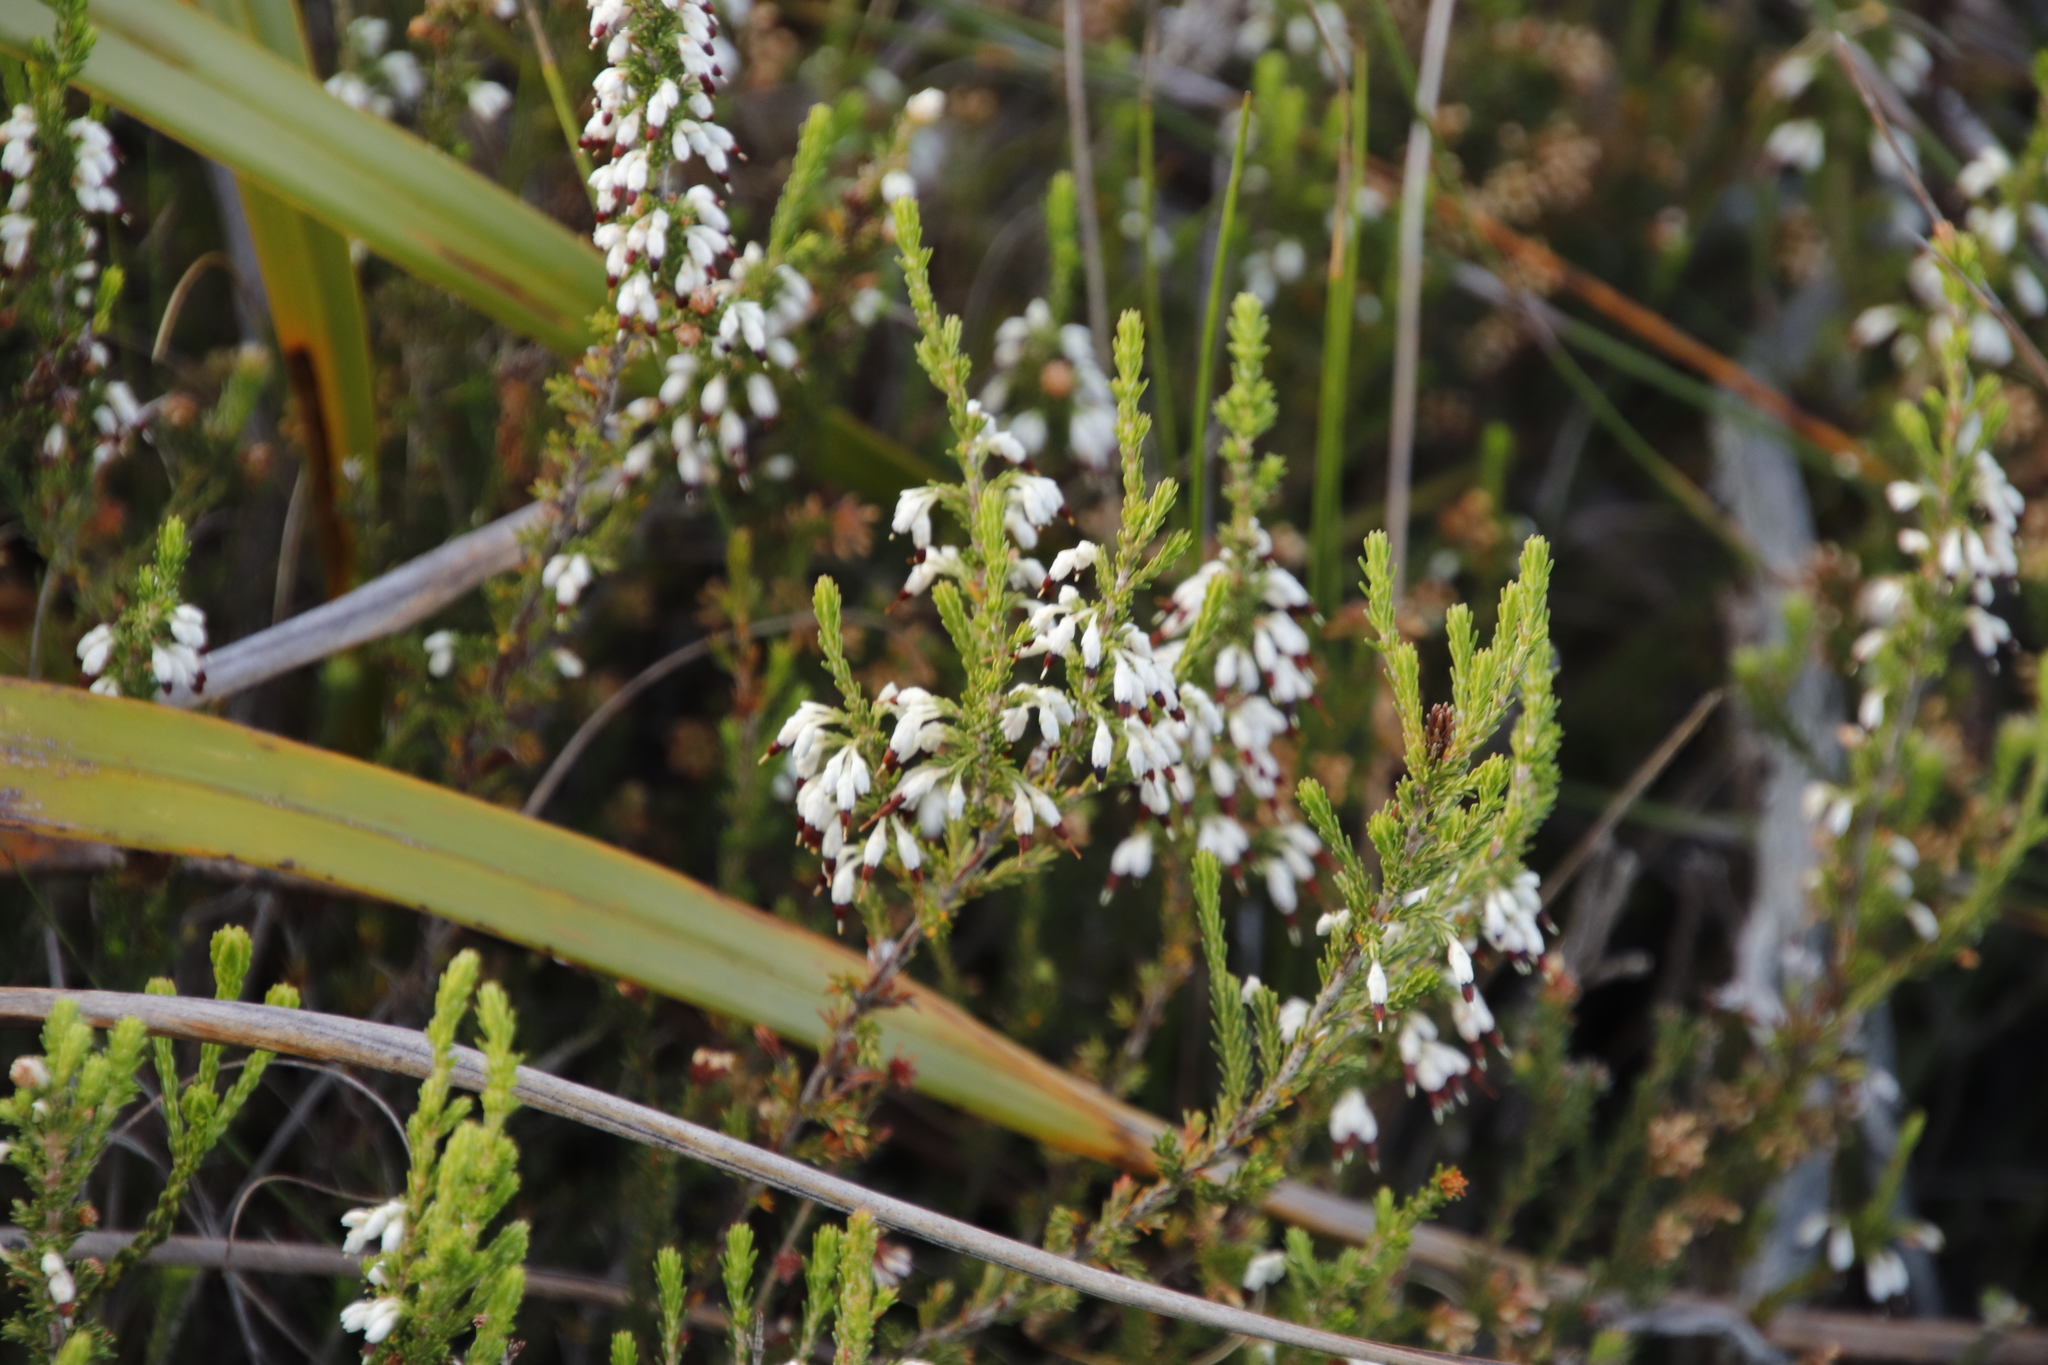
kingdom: Plantae
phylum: Tracheophyta
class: Magnoliopsida
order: Ericales
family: Ericaceae
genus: Erica
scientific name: Erica imbricata
